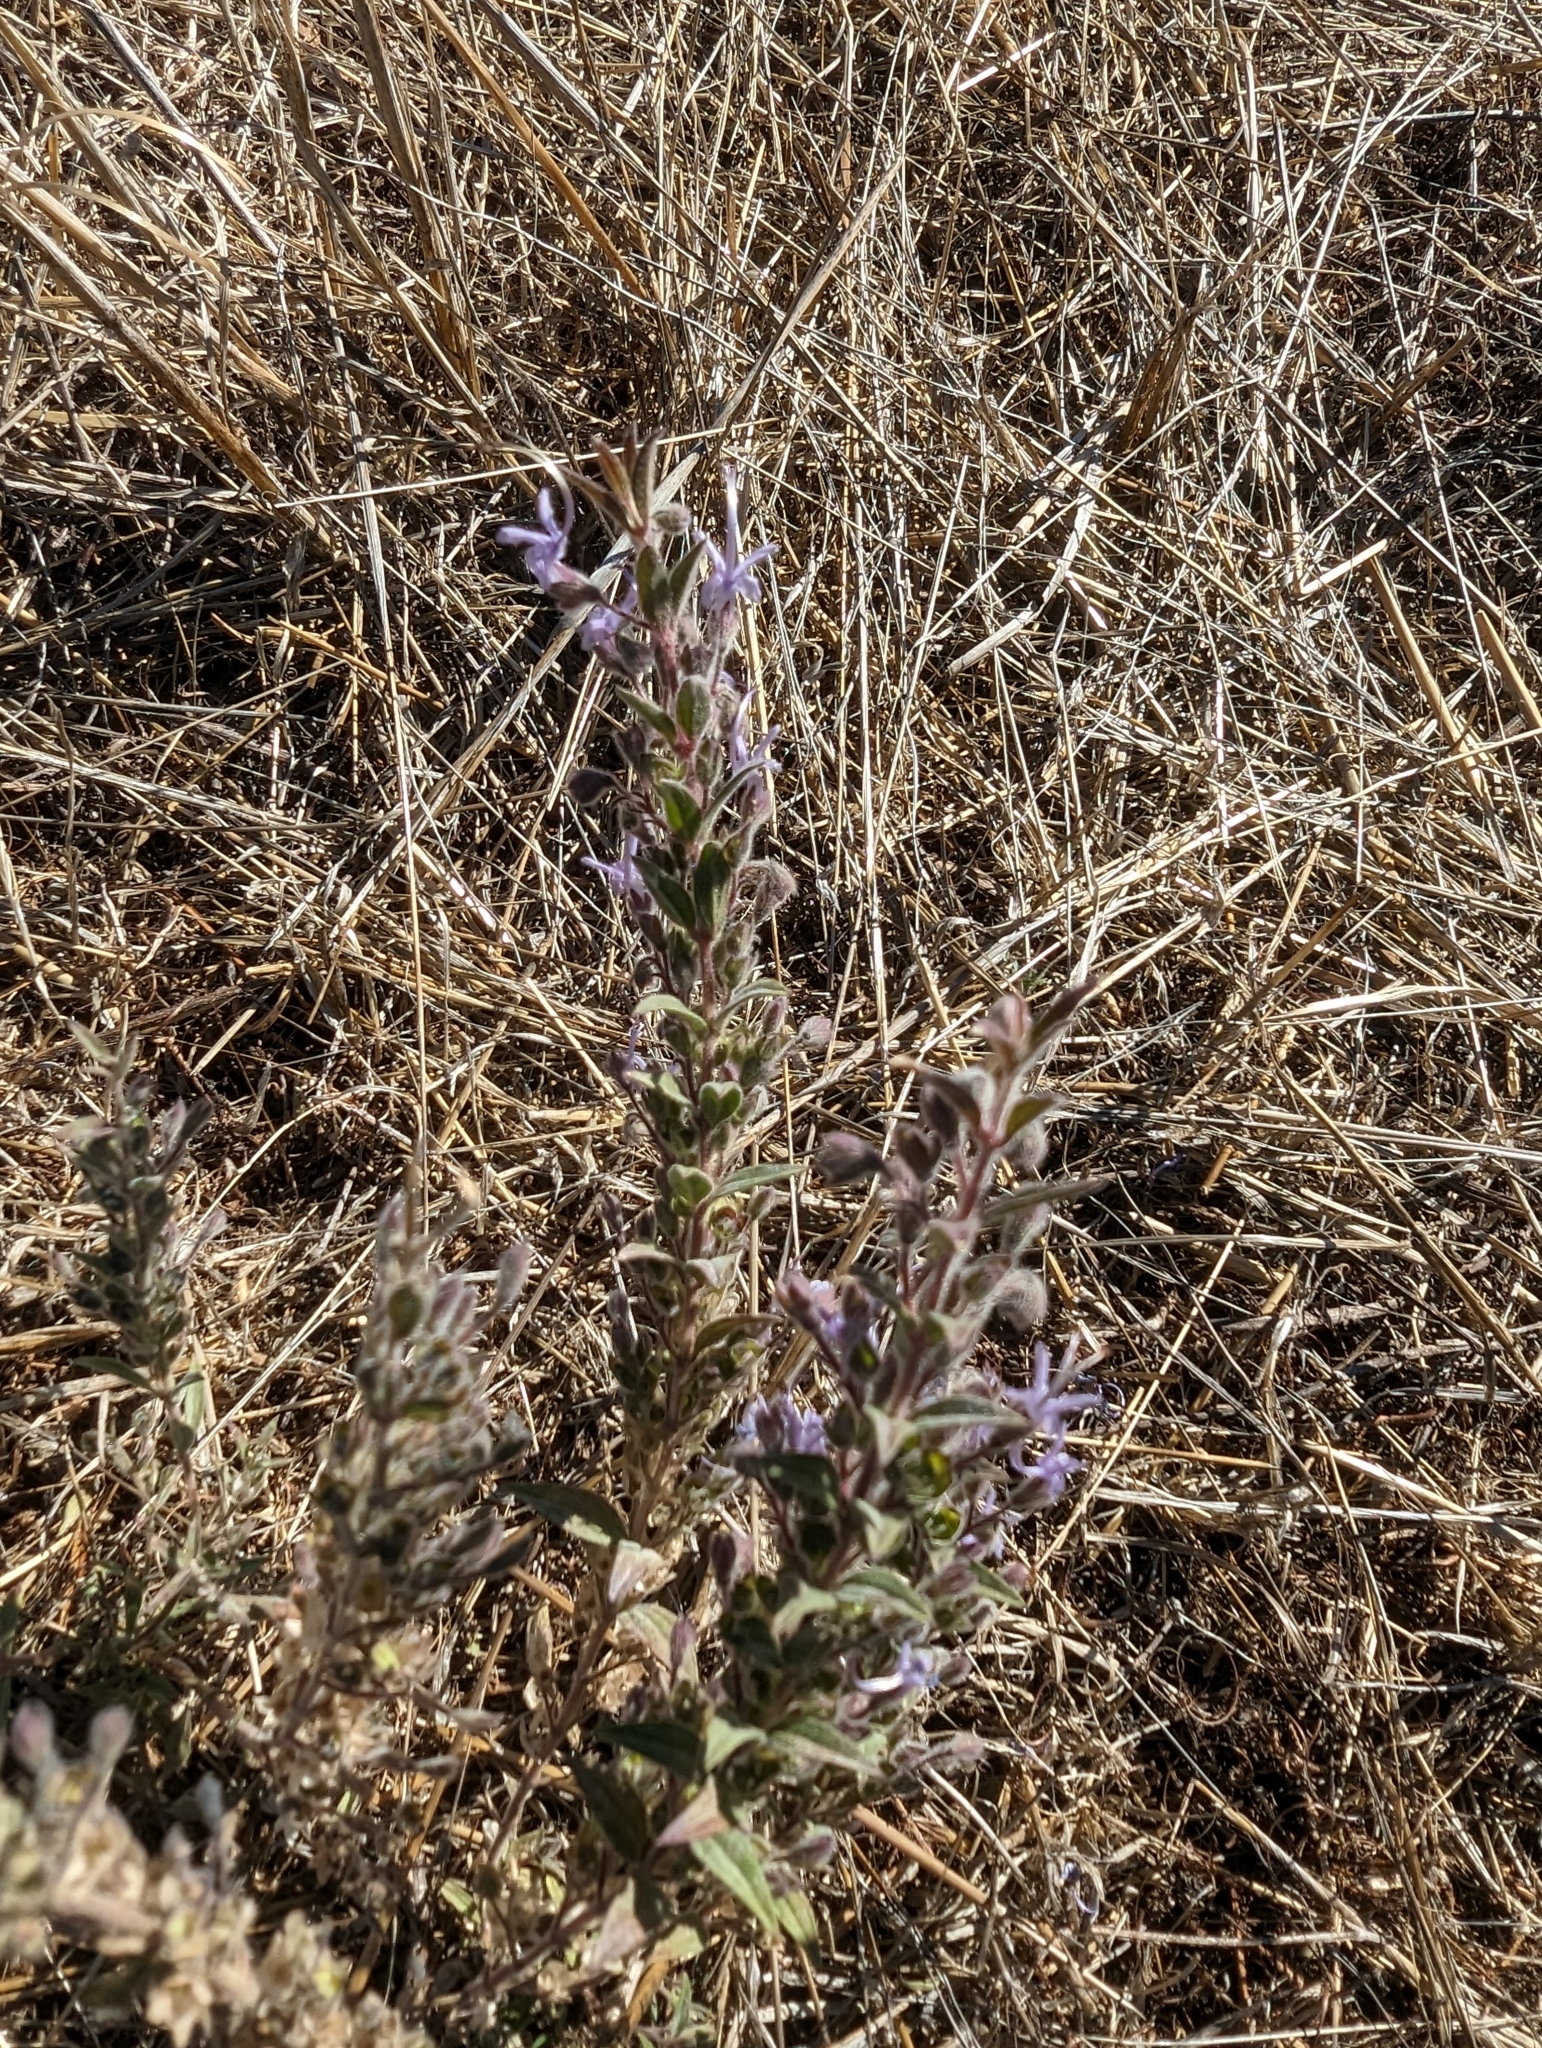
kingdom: Plantae
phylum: Tracheophyta
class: Magnoliopsida
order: Lamiales
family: Lamiaceae
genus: Trichostema
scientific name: Trichostema lanceolatum
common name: Vinegar-weed
